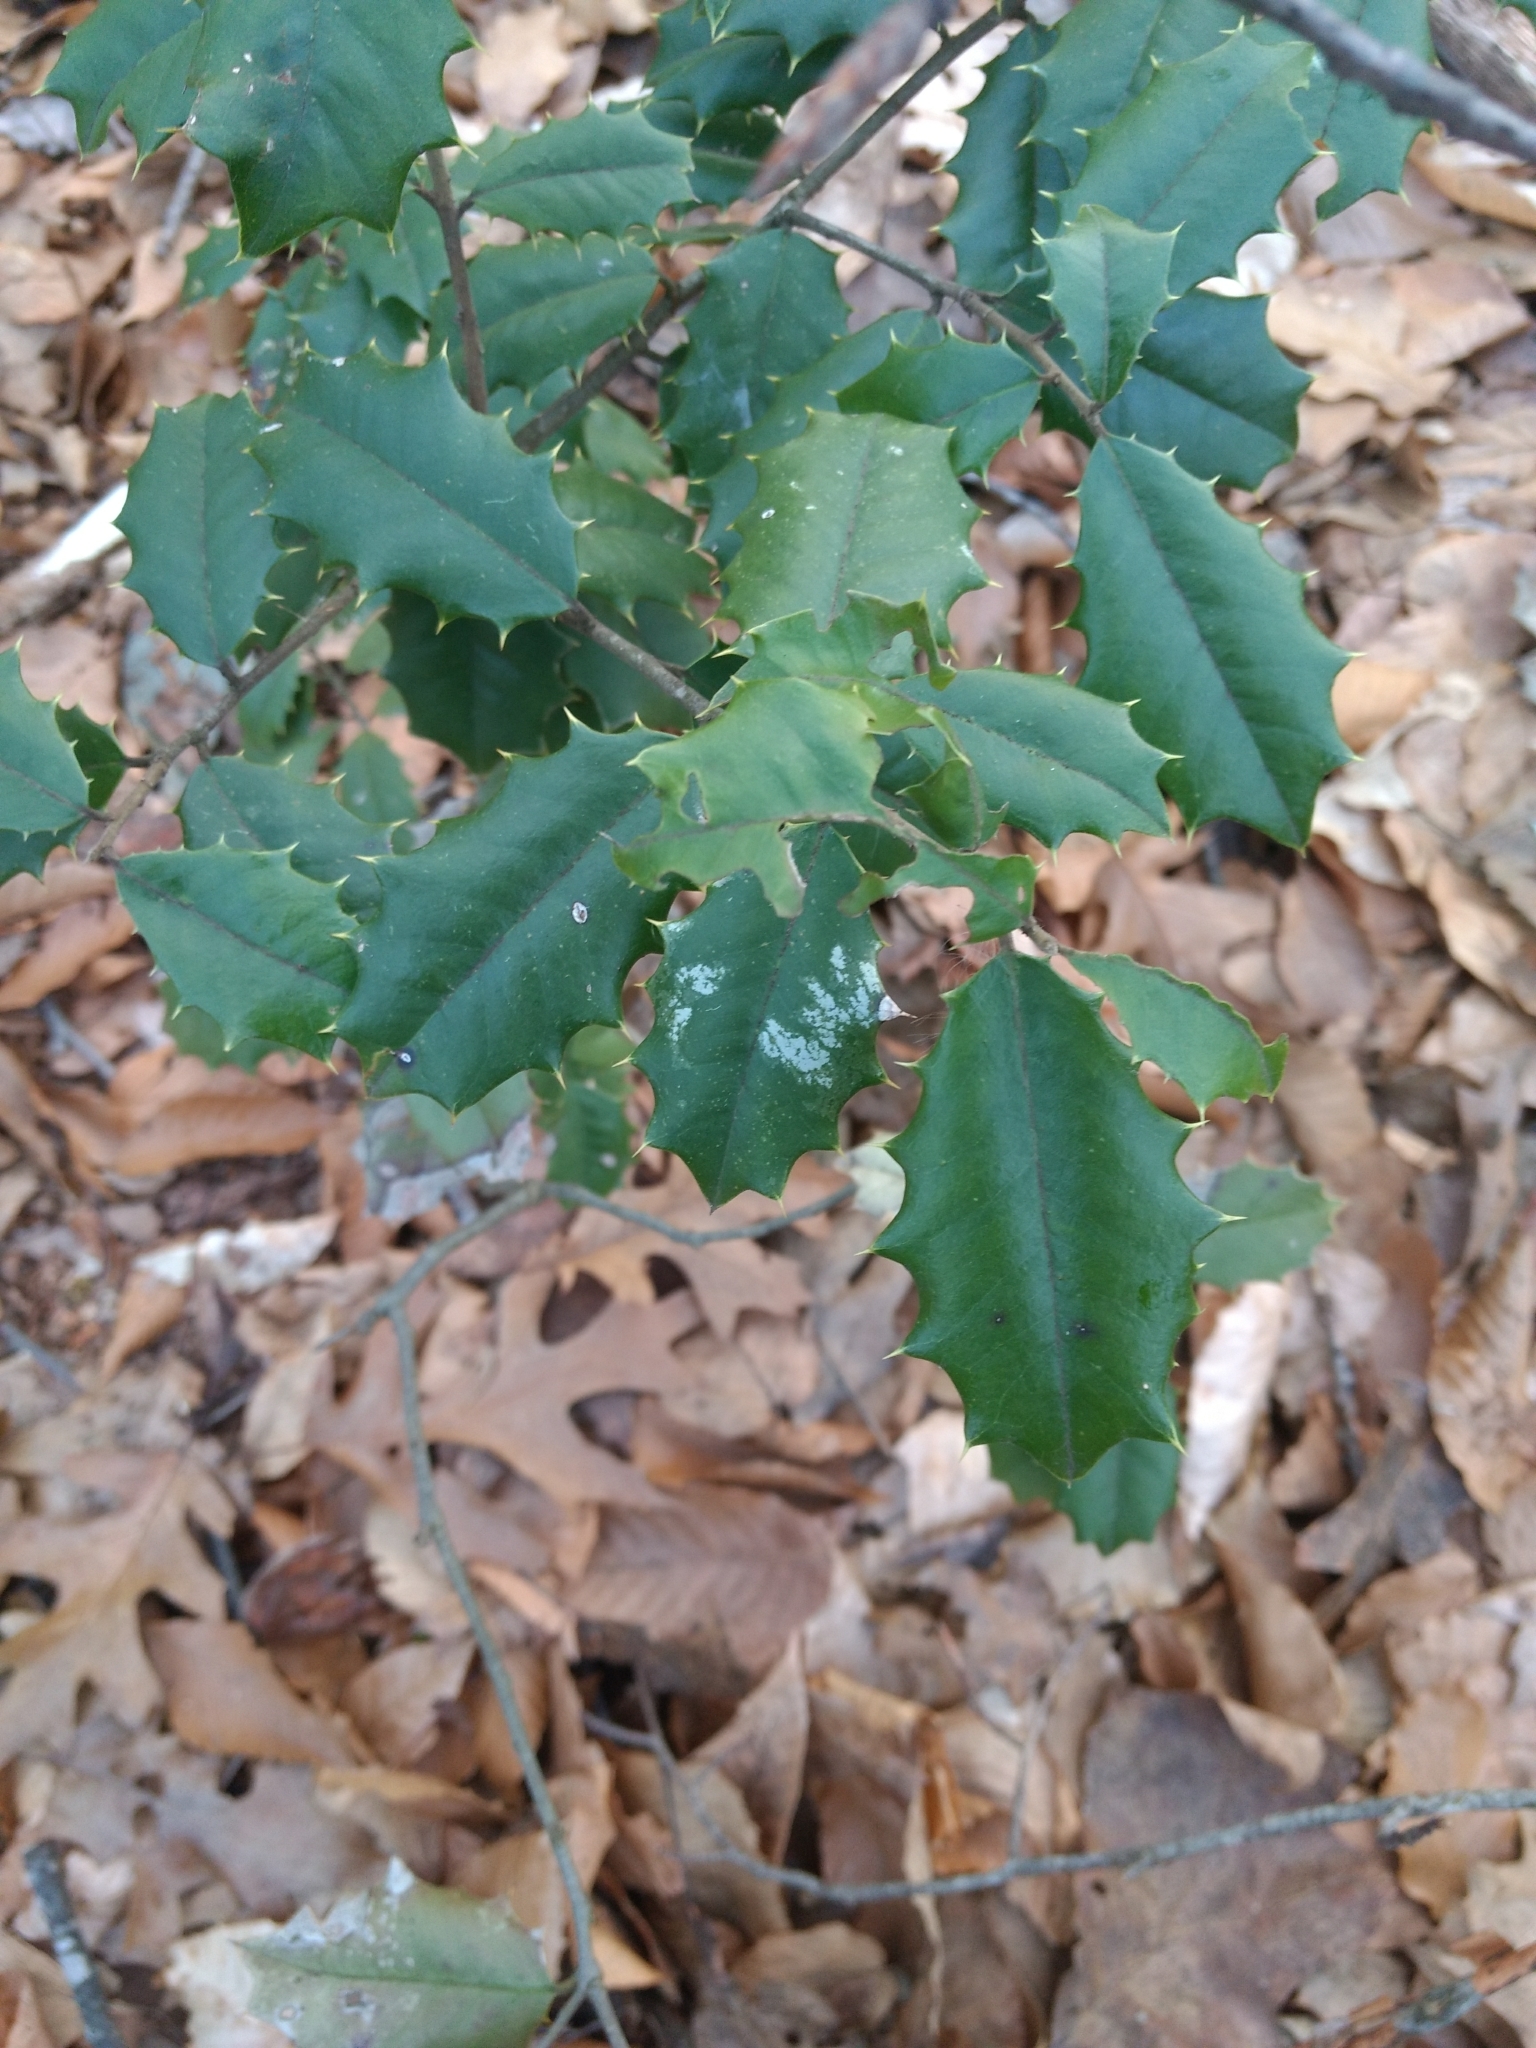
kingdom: Plantae
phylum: Tracheophyta
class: Magnoliopsida
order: Aquifoliales
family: Aquifoliaceae
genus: Ilex
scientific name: Ilex opaca
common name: American holly
